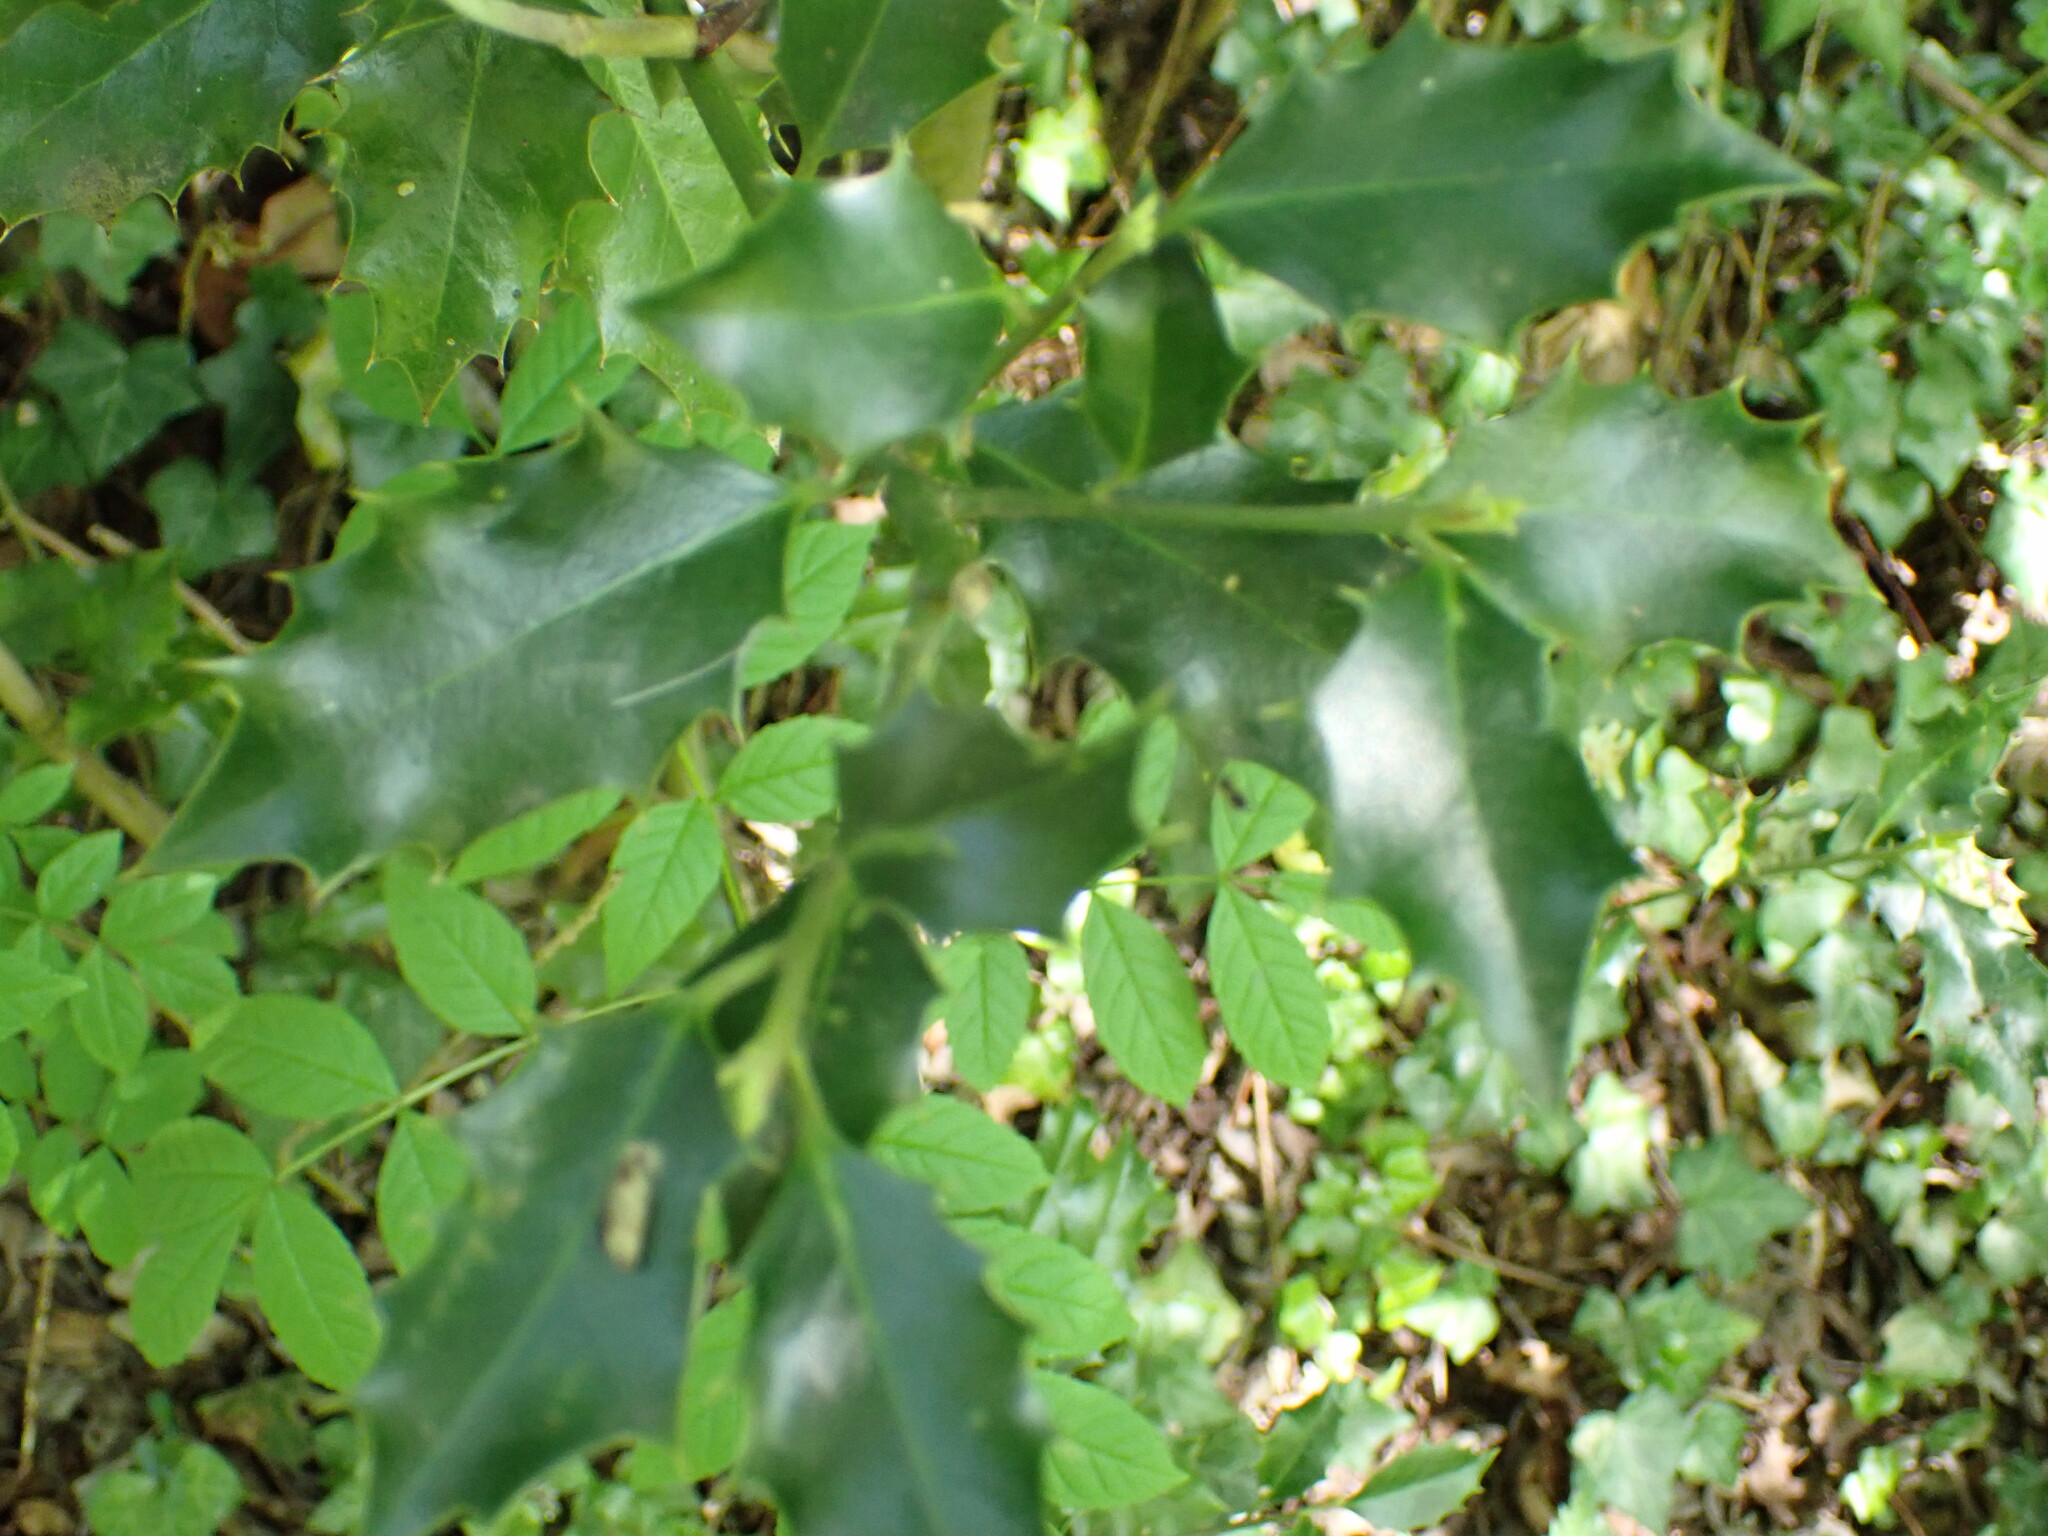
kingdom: Plantae
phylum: Tracheophyta
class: Magnoliopsida
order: Aquifoliales
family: Aquifoliaceae
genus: Ilex
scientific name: Ilex aquifolium
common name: English holly
